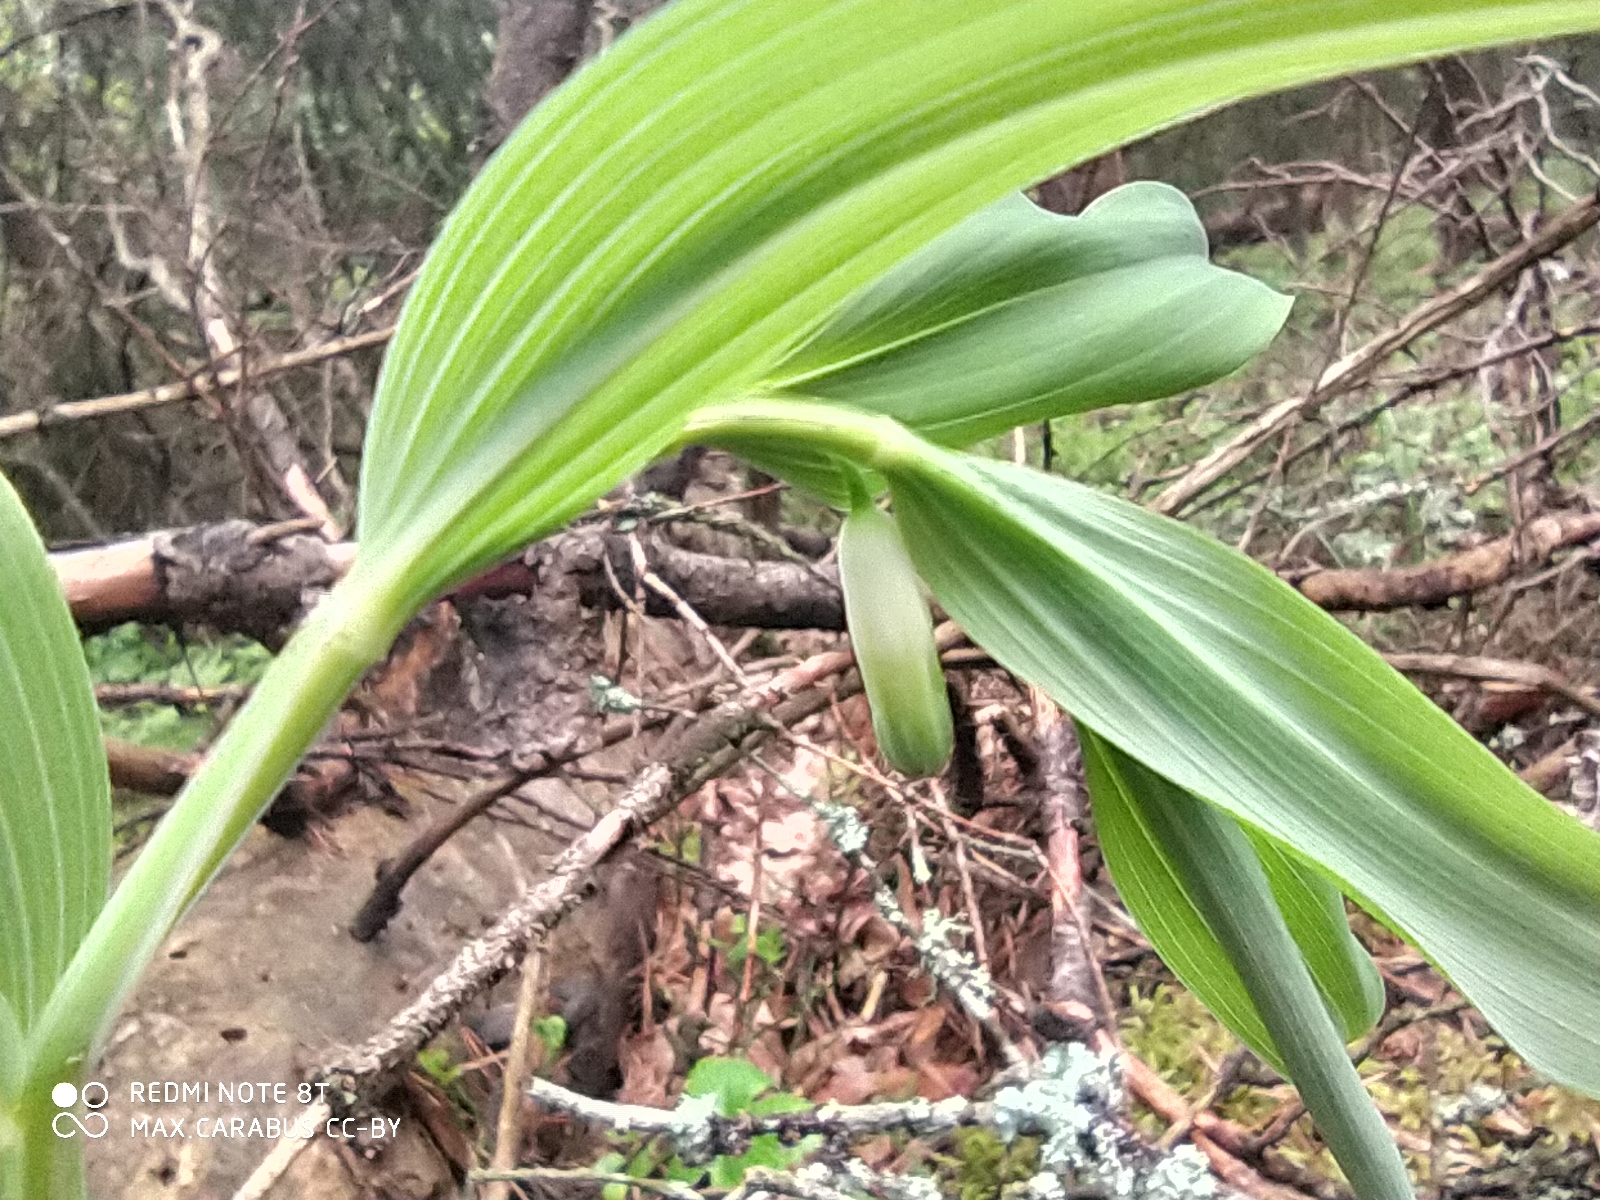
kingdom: Plantae
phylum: Tracheophyta
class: Liliopsida
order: Asparagales
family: Asparagaceae
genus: Polygonatum
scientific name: Polygonatum odoratum
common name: Angular solomon's-seal
